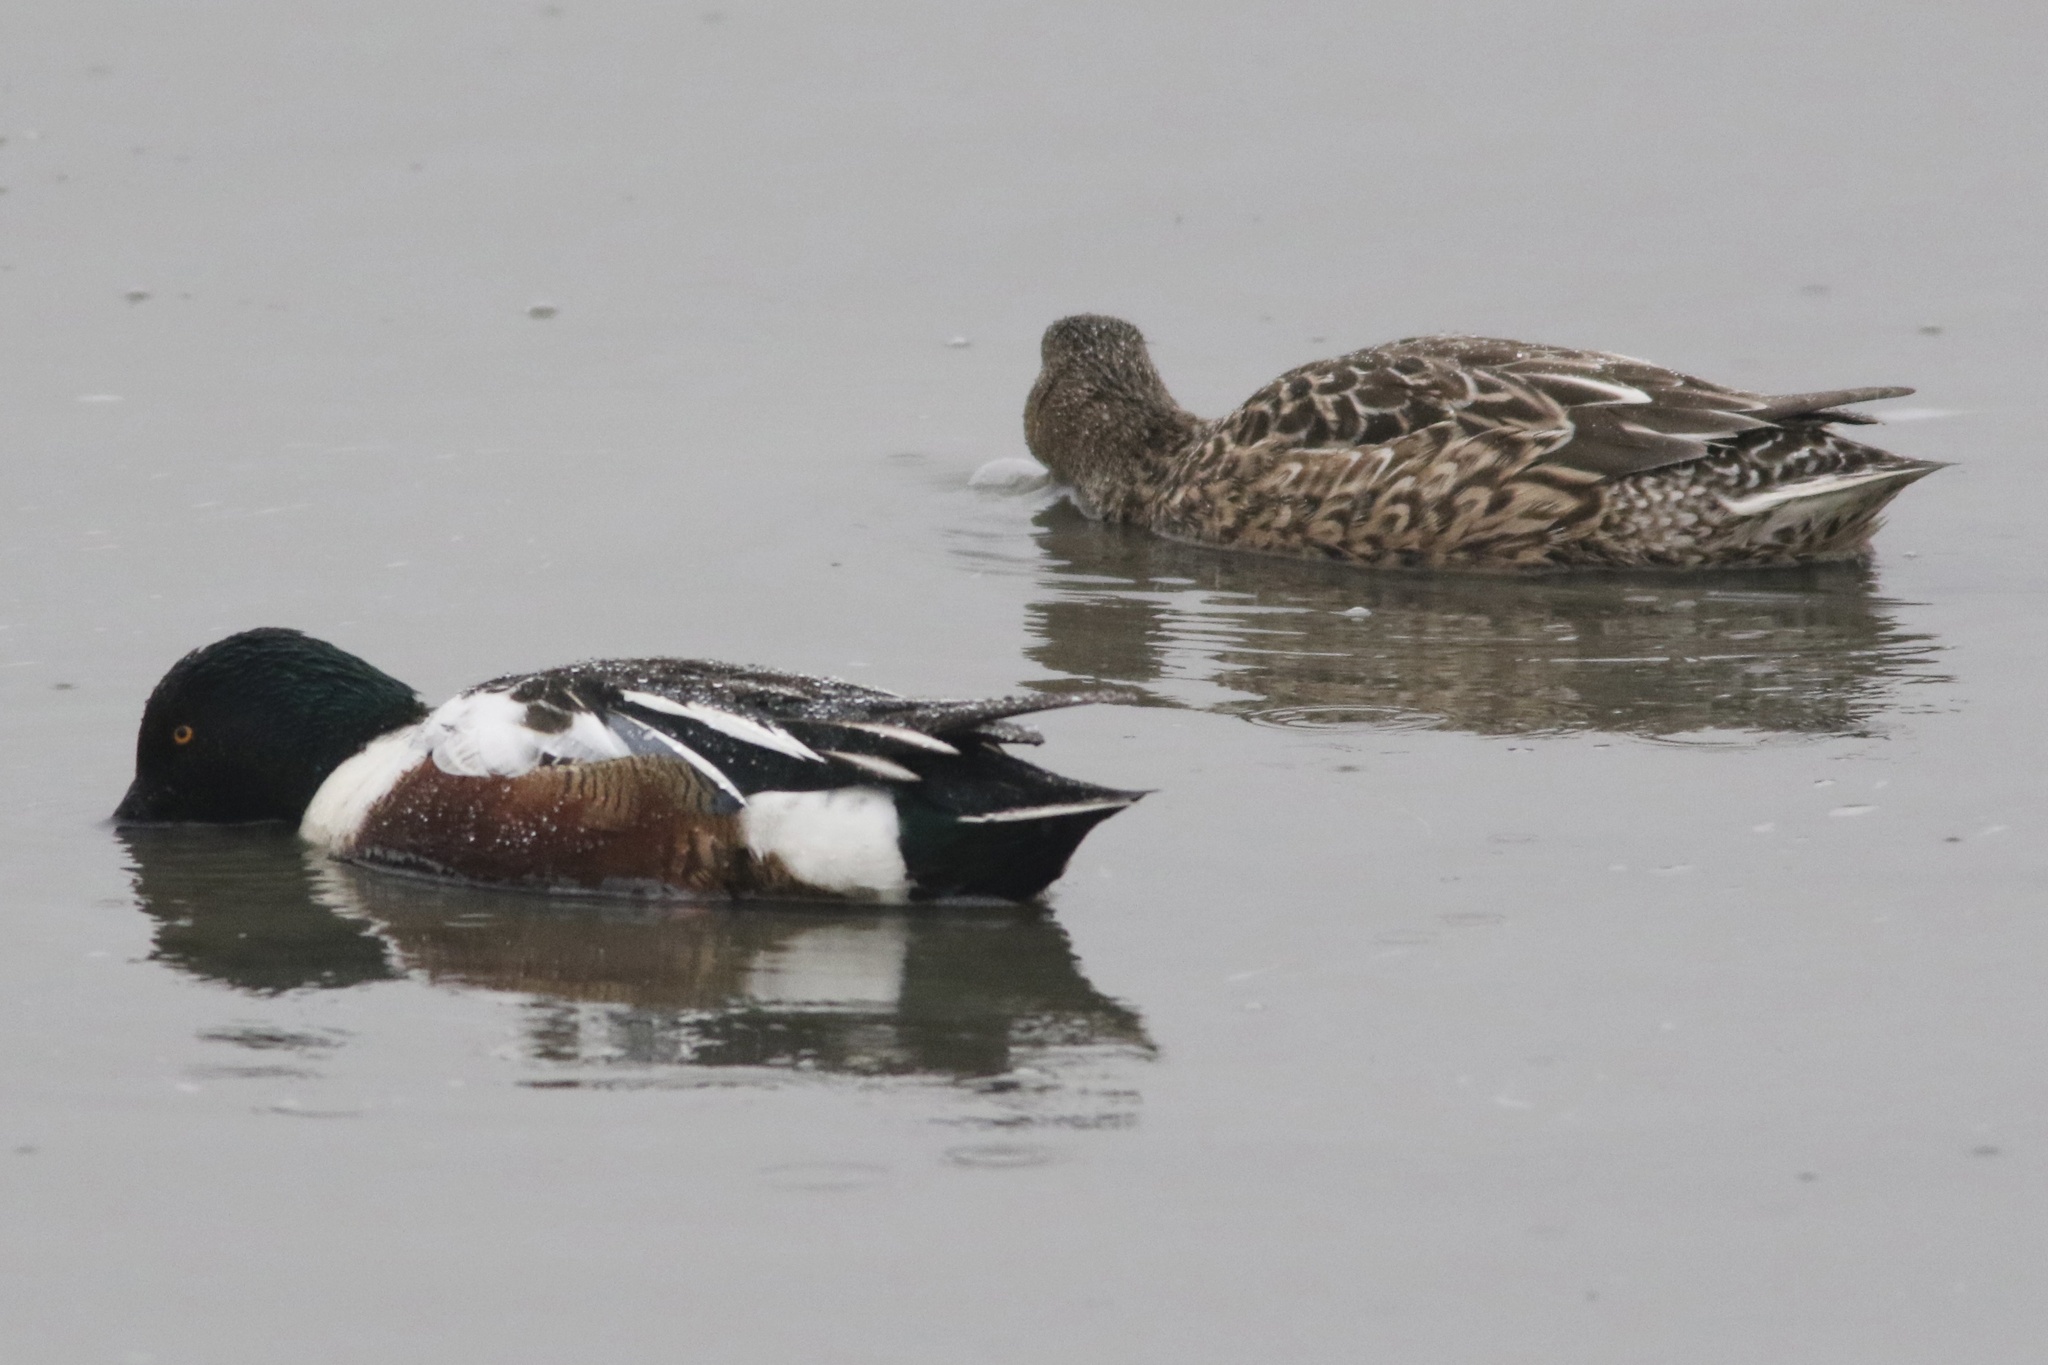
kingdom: Animalia
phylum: Chordata
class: Aves
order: Anseriformes
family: Anatidae
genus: Spatula
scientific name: Spatula clypeata
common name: Northern shoveler
